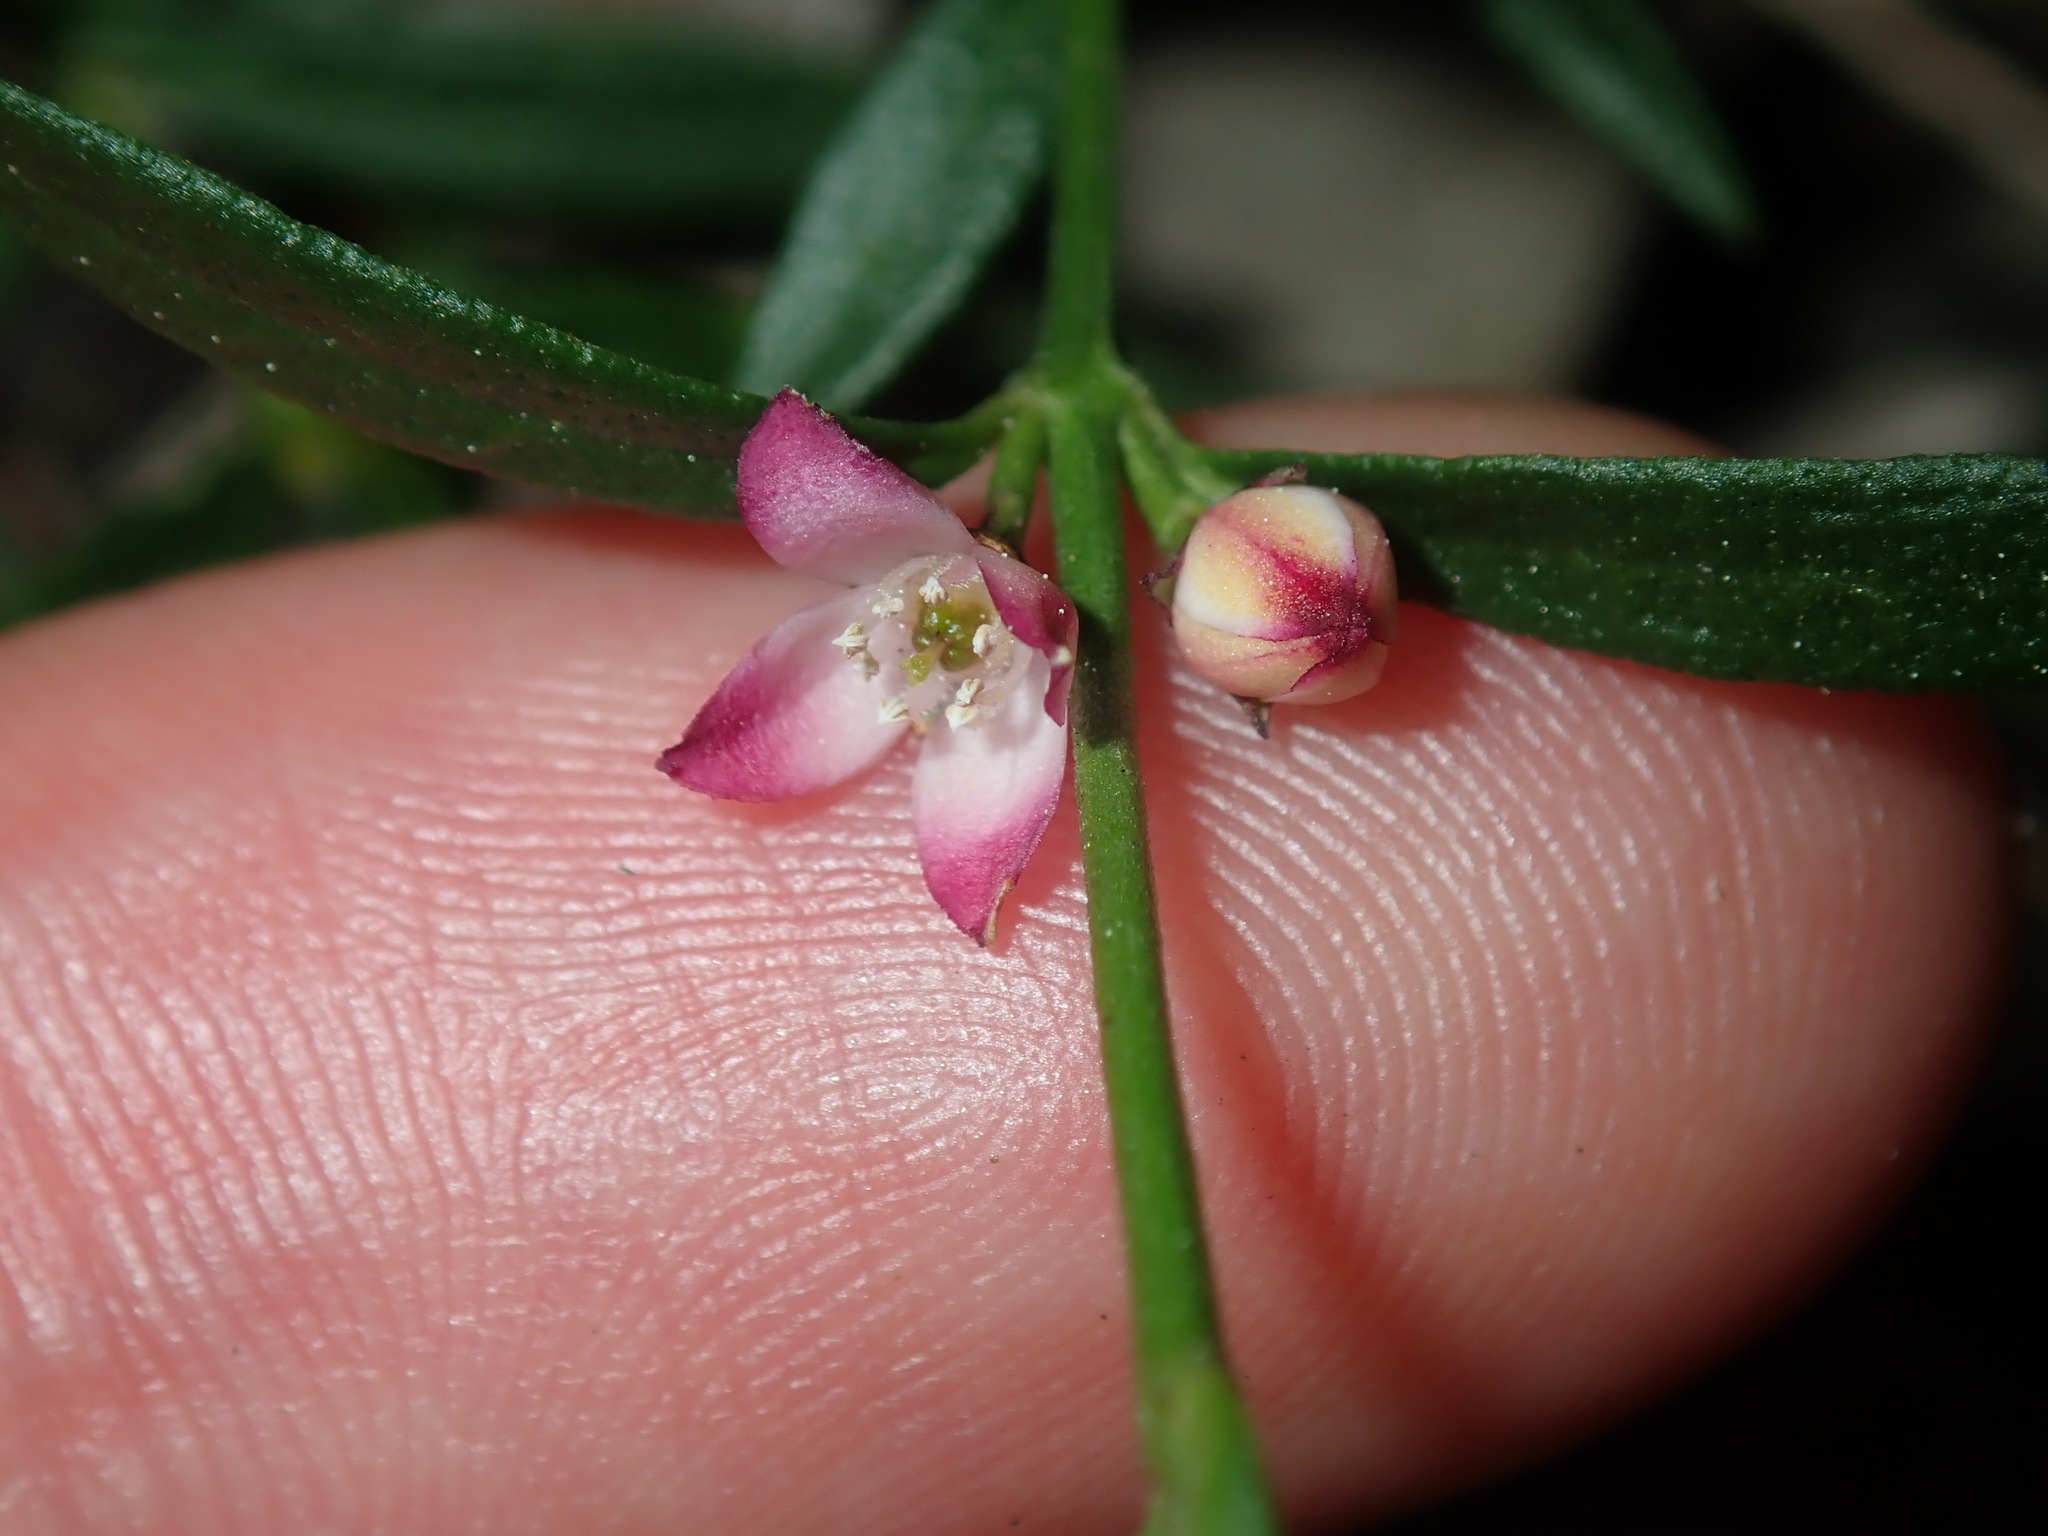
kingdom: Plantae
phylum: Tracheophyta
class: Magnoliopsida
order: Sapindales
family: Rutaceae
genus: Cyanothamnus
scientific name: Cyanothamnus polygalifolius
